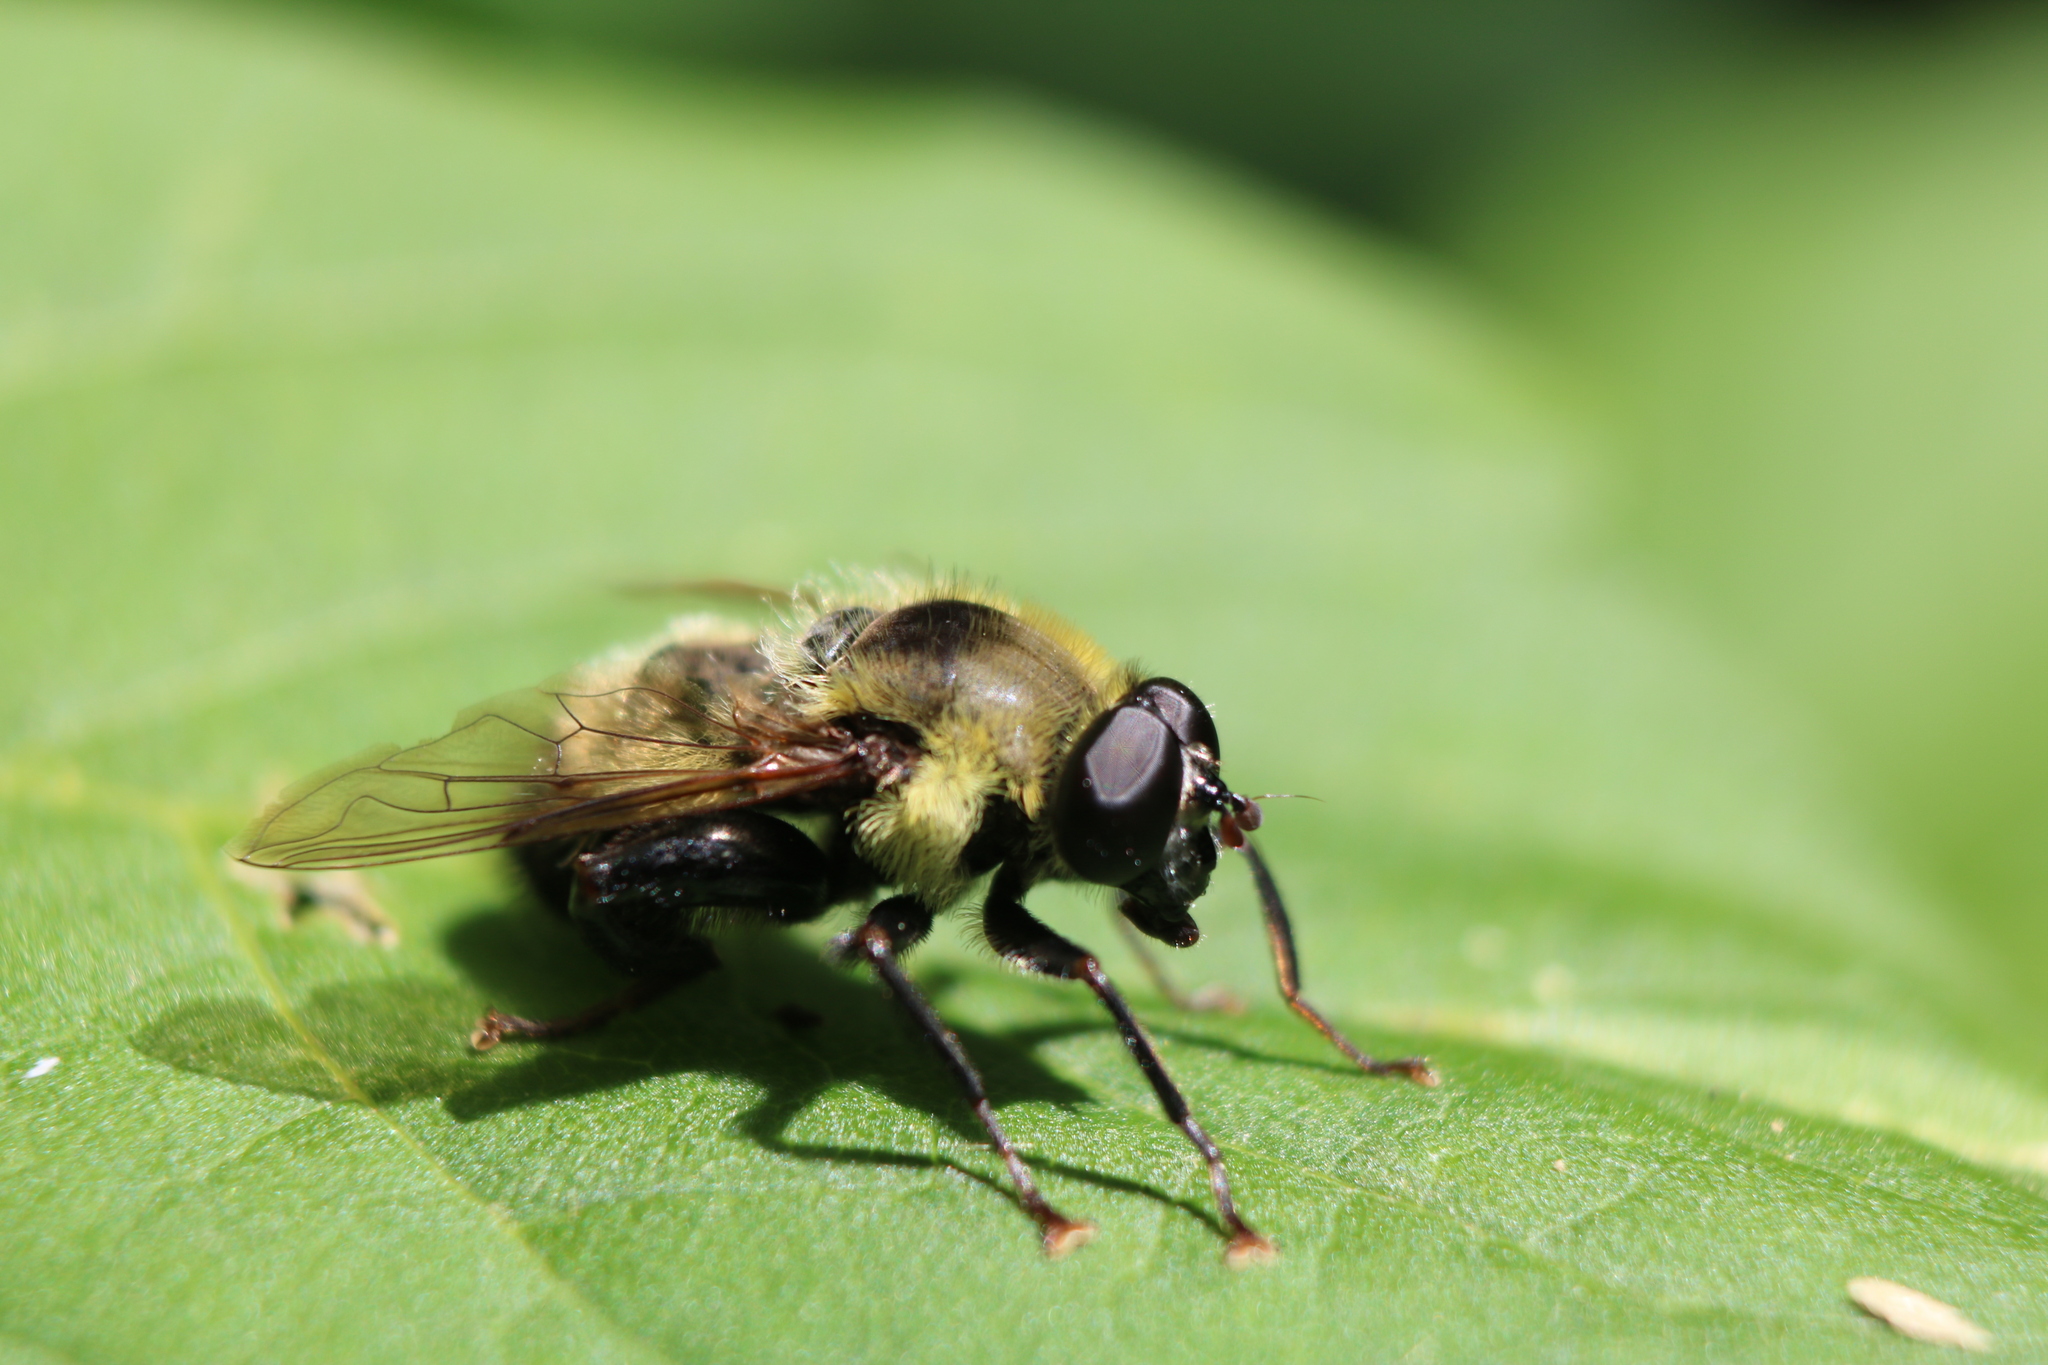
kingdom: Animalia
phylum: Arthropoda
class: Insecta
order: Diptera
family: Syrphidae
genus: Imatisma
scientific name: Imatisma posticata
